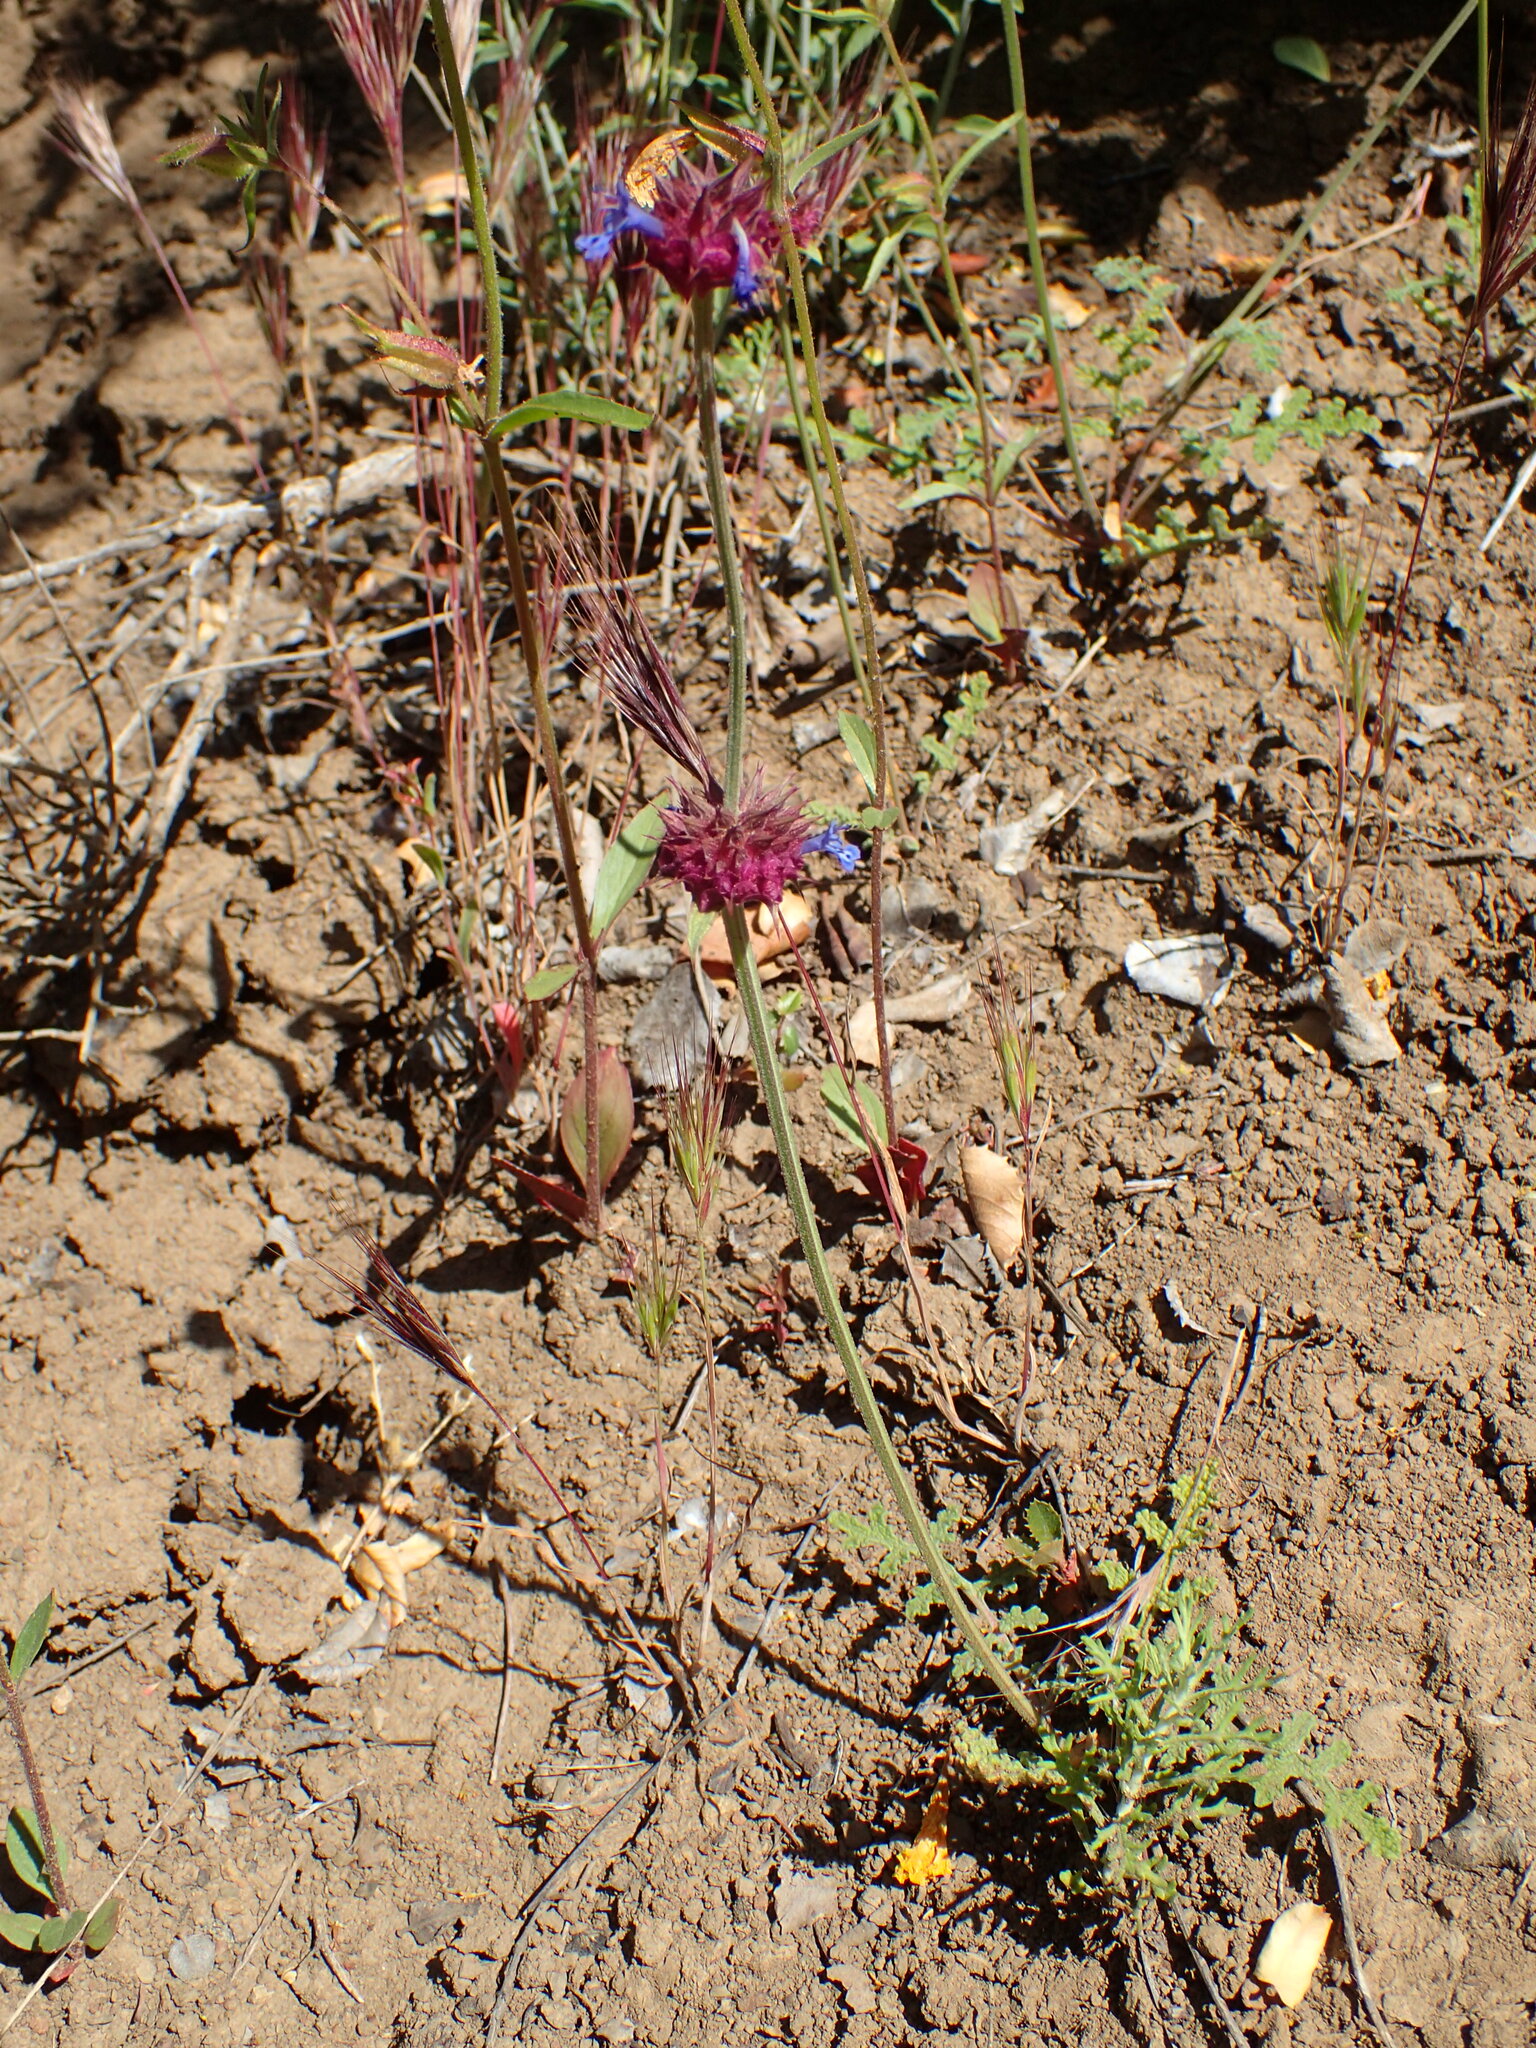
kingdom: Plantae
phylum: Tracheophyta
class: Magnoliopsida
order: Lamiales
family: Lamiaceae
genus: Salvia
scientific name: Salvia columbariae
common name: Chia
